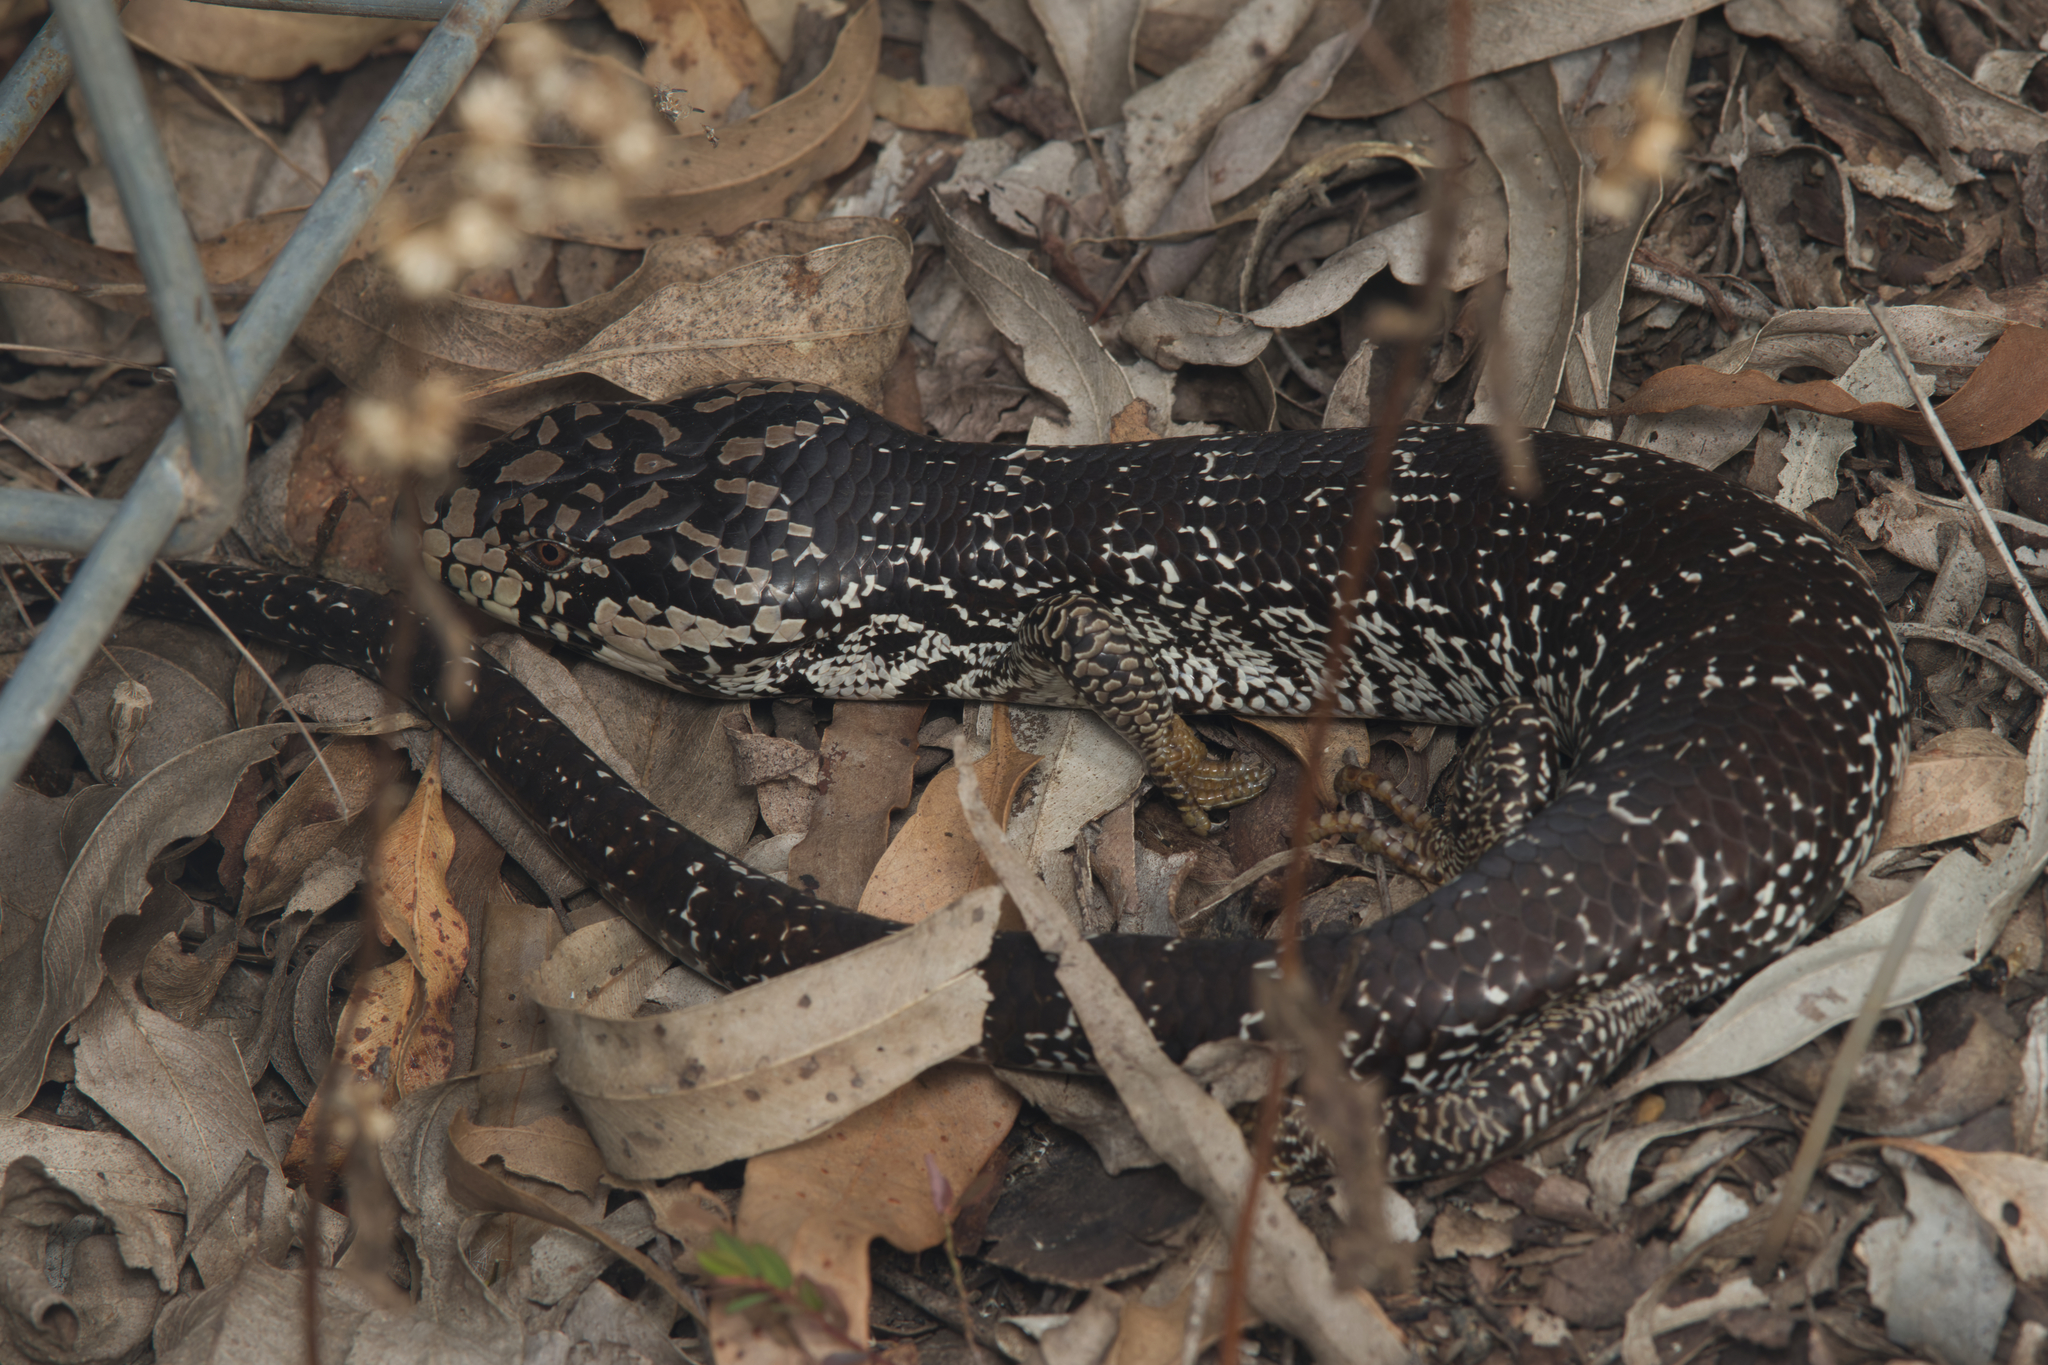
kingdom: Animalia
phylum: Chordata
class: Squamata
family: Scincidae
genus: Cyclodomorphus
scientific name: Cyclodomorphus gerrardii
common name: Pink-tongued lizard
